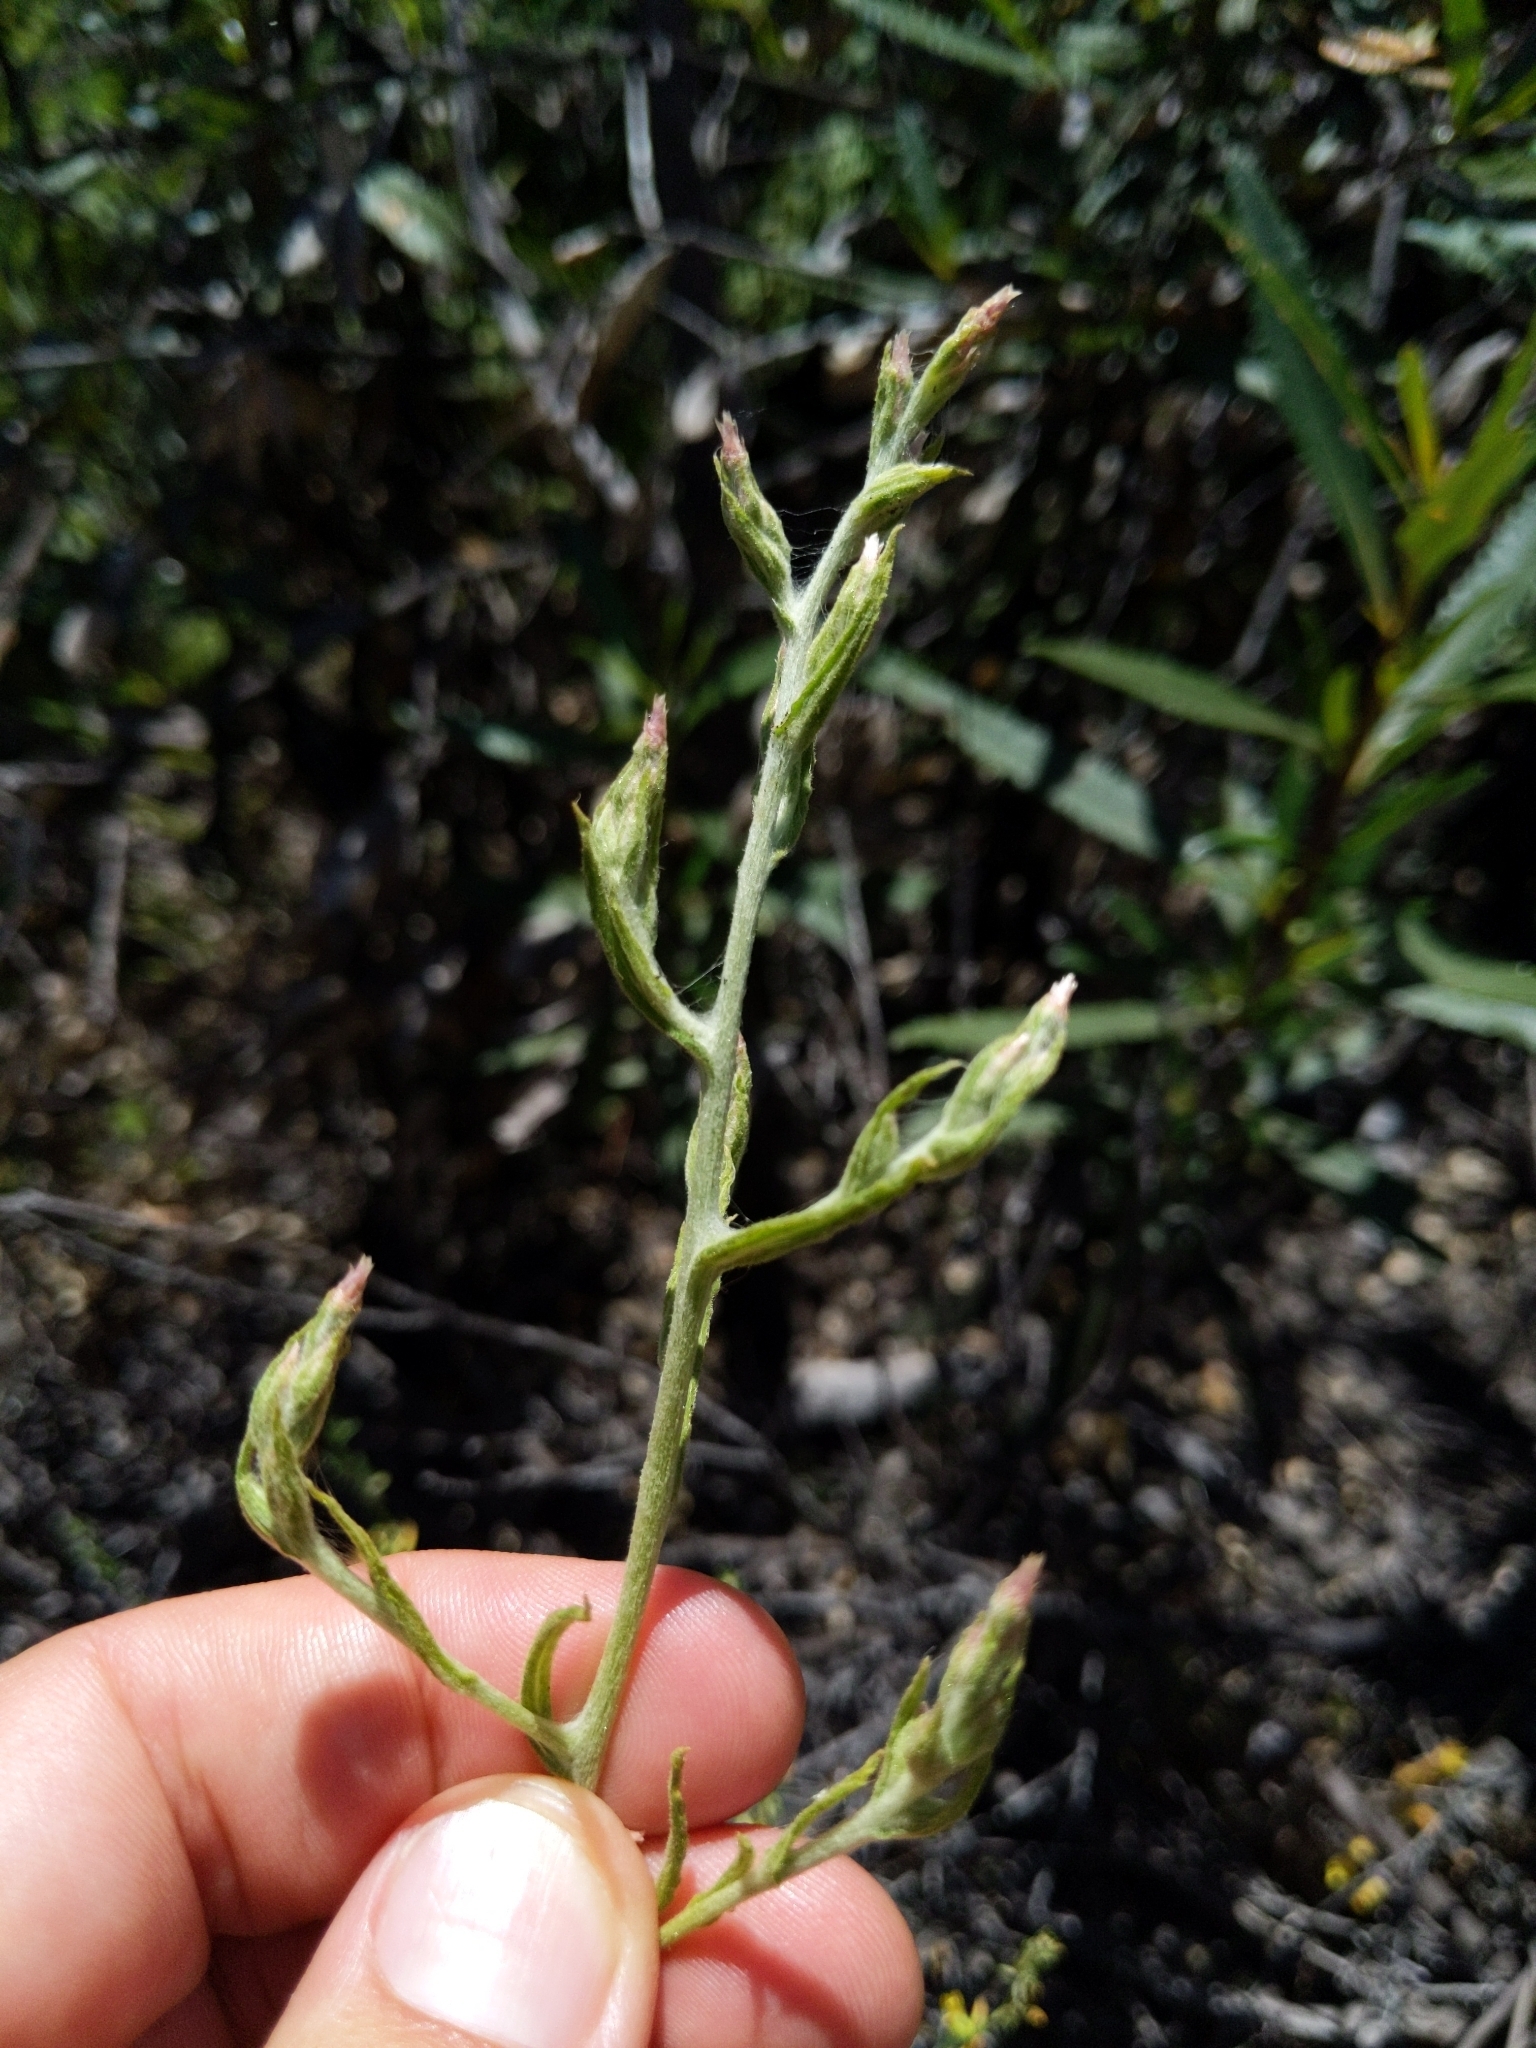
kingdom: Plantae
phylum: Tracheophyta
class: Magnoliopsida
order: Asterales
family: Asteraceae
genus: Pseudognaphalium
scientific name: Pseudognaphalium ramosissimum
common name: Pink rabbit-tobacco
